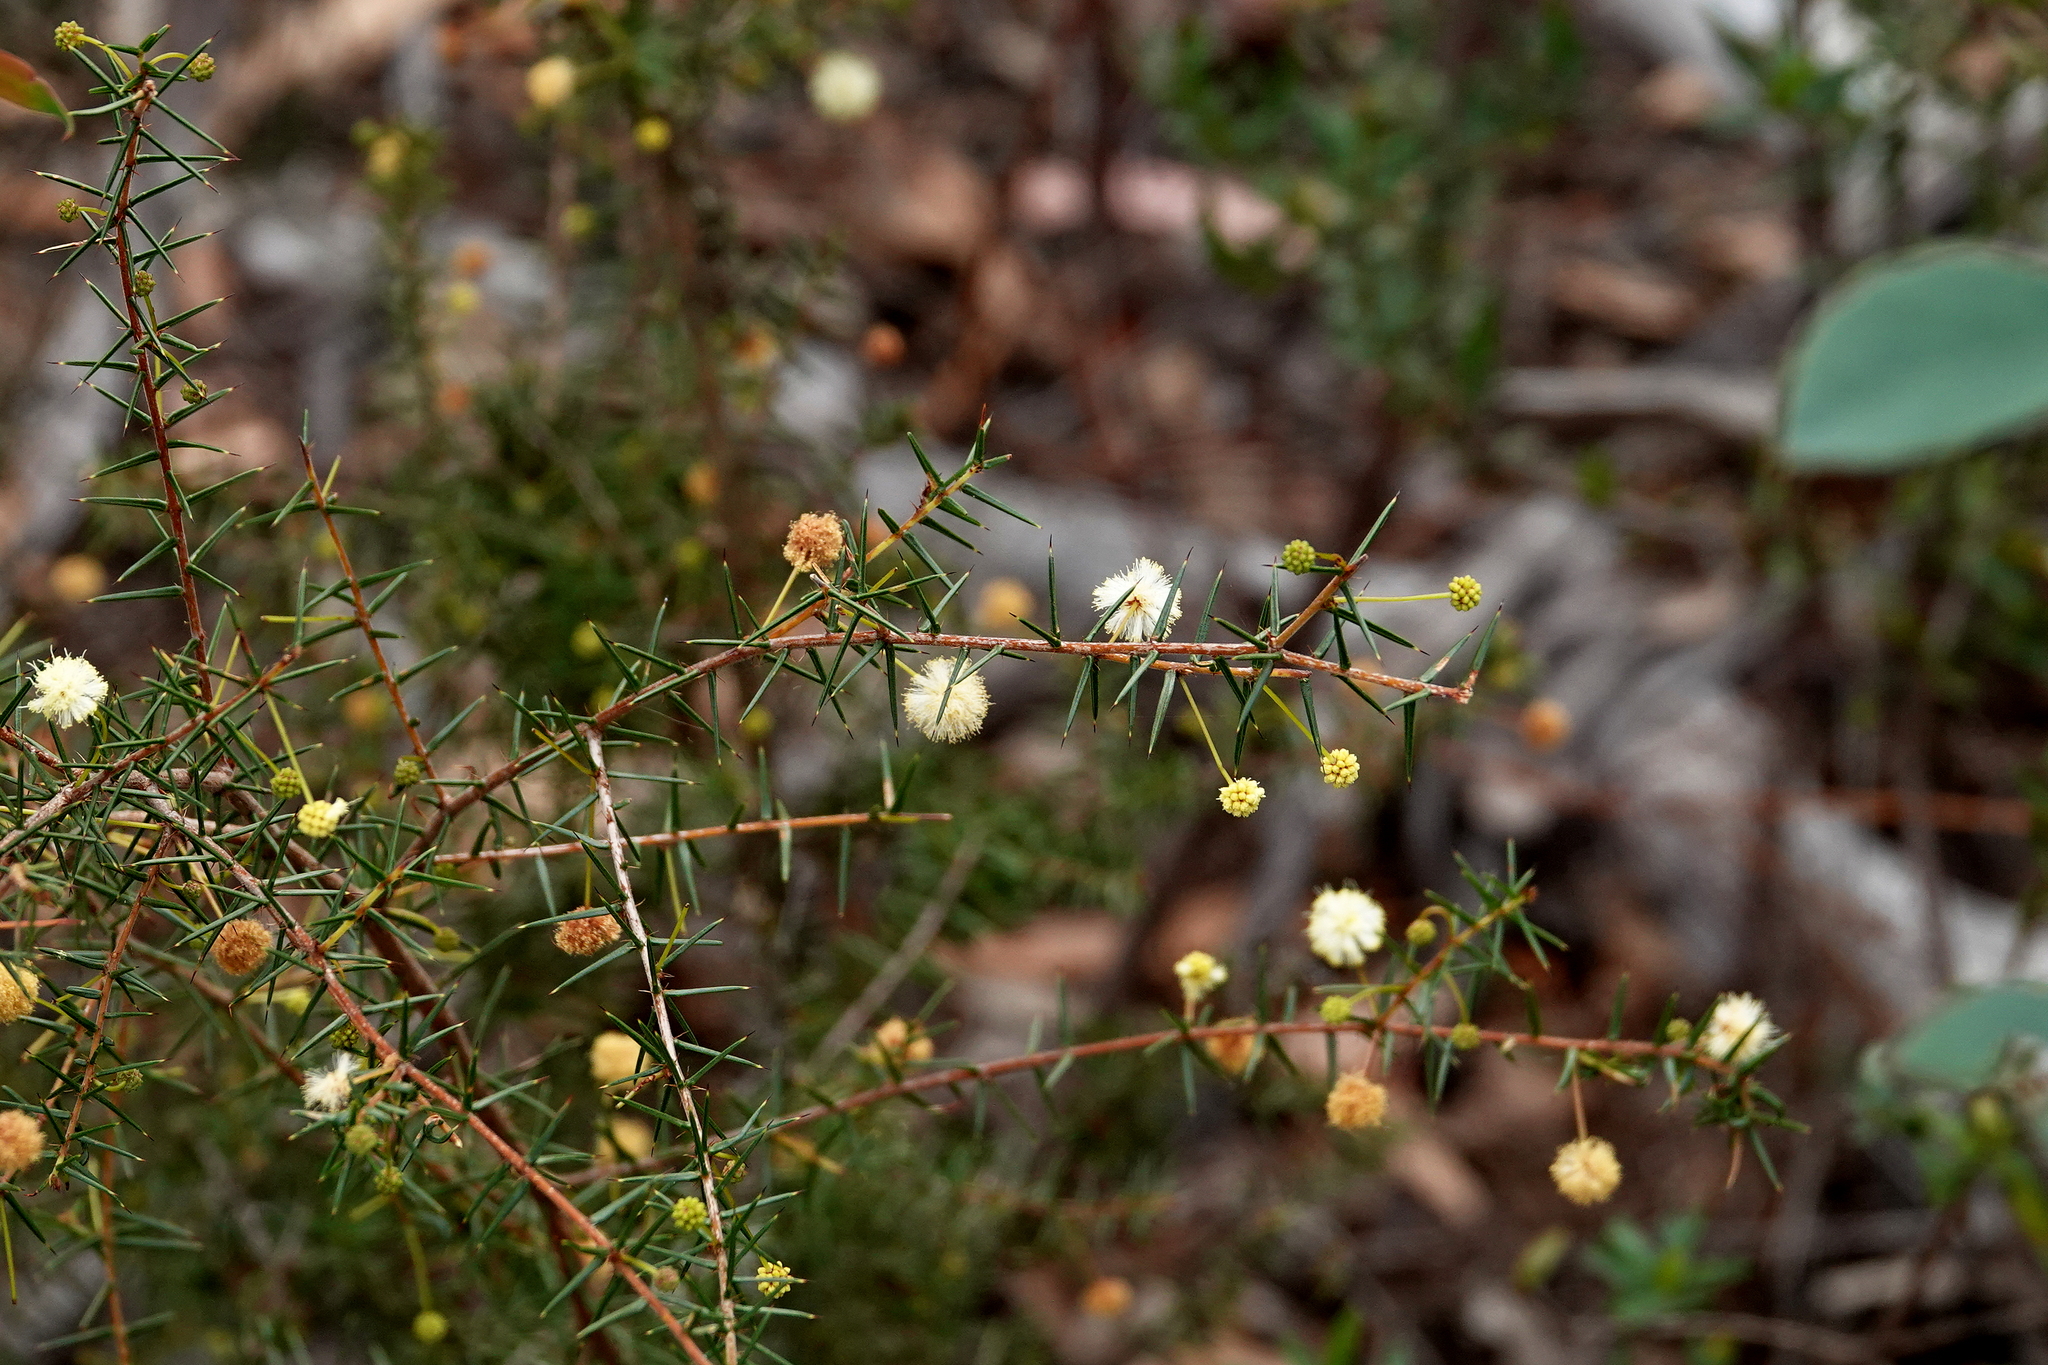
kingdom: Plantae
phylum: Tracheophyta
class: Magnoliopsida
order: Fabales
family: Fabaceae
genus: Acacia
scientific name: Acacia ulicifolia
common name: Juniper wattle
